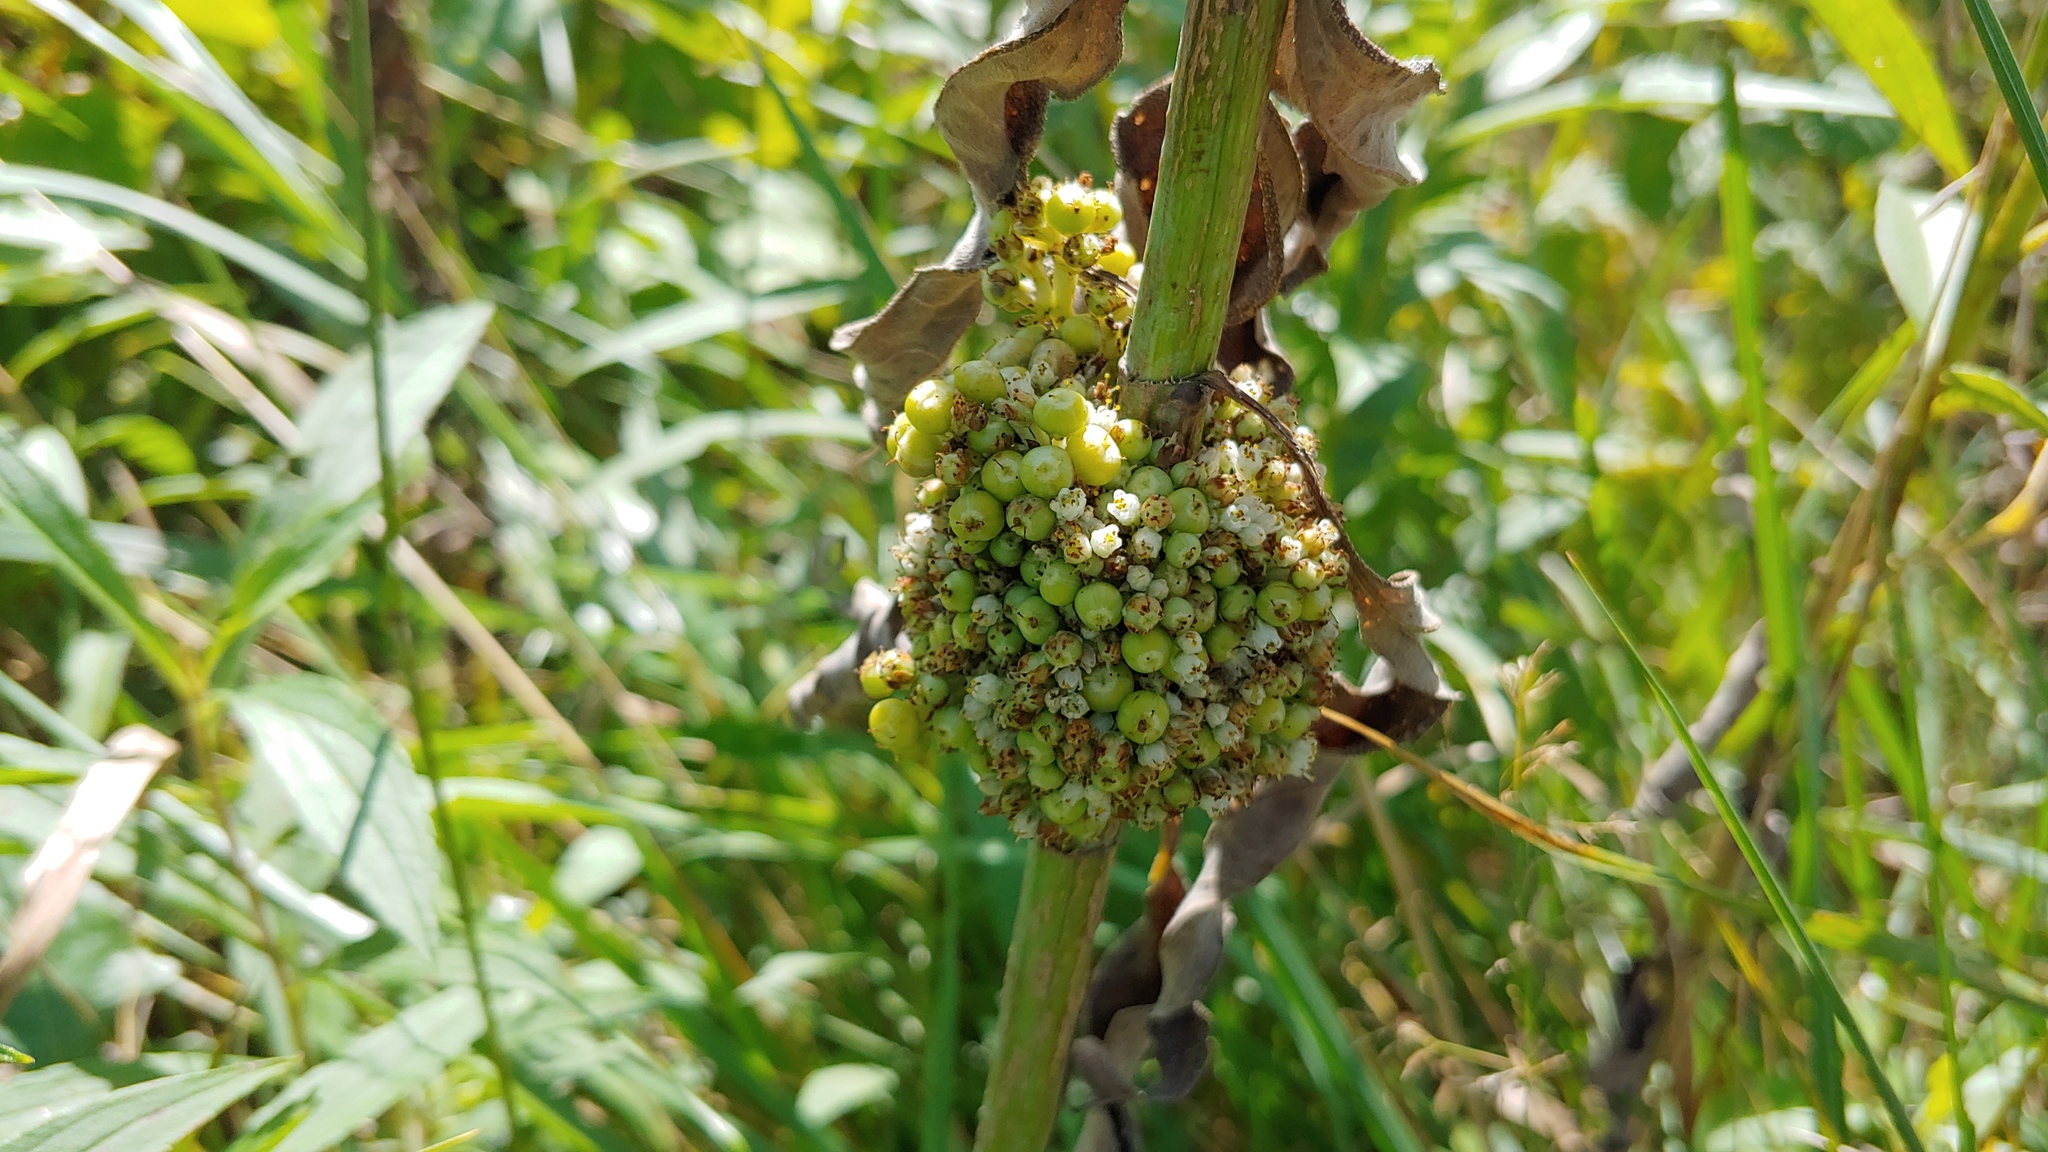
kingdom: Plantae
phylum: Tracheophyta
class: Magnoliopsida
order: Solanales
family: Convolvulaceae
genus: Cuscuta
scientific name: Cuscuta coryli
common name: Hazel dodder
